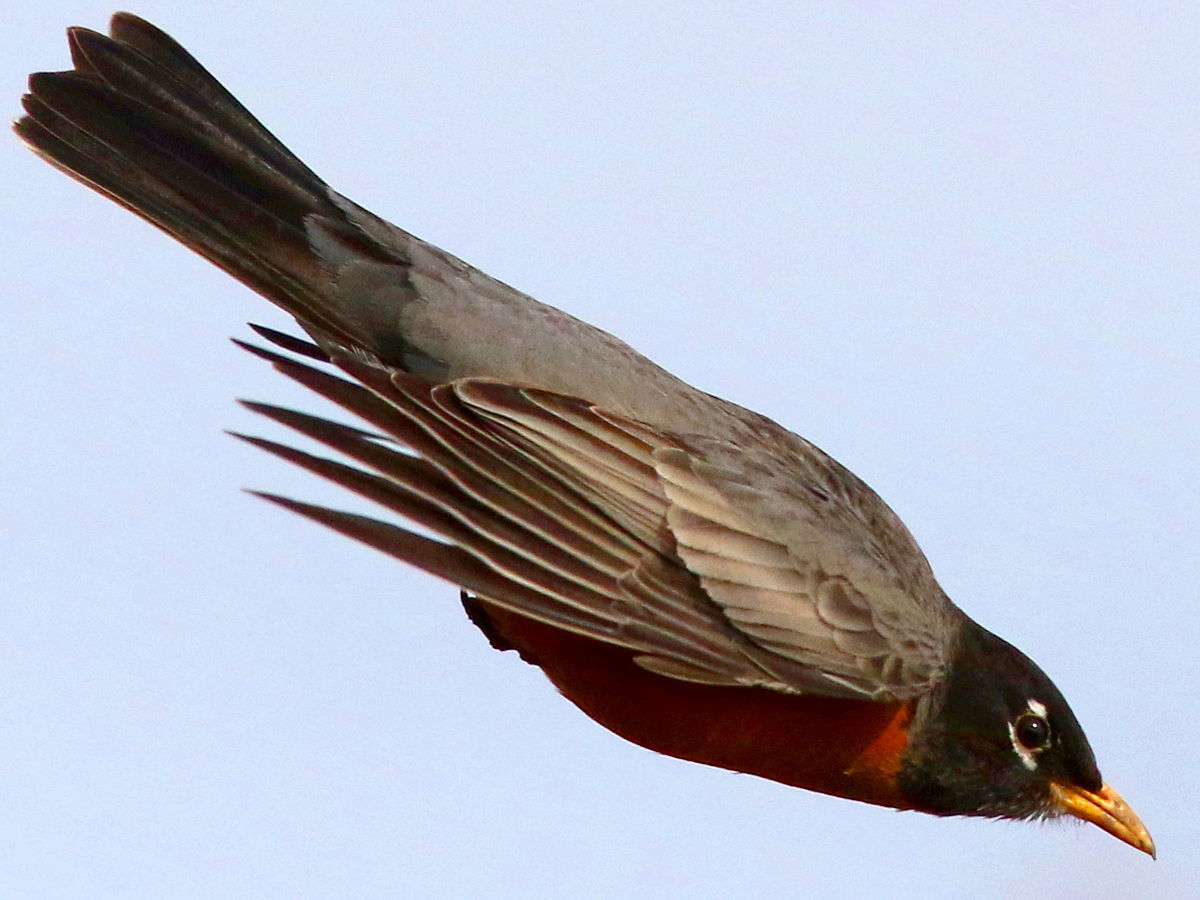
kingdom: Animalia
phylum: Chordata
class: Aves
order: Passeriformes
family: Turdidae
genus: Turdus
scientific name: Turdus migratorius
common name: American robin
